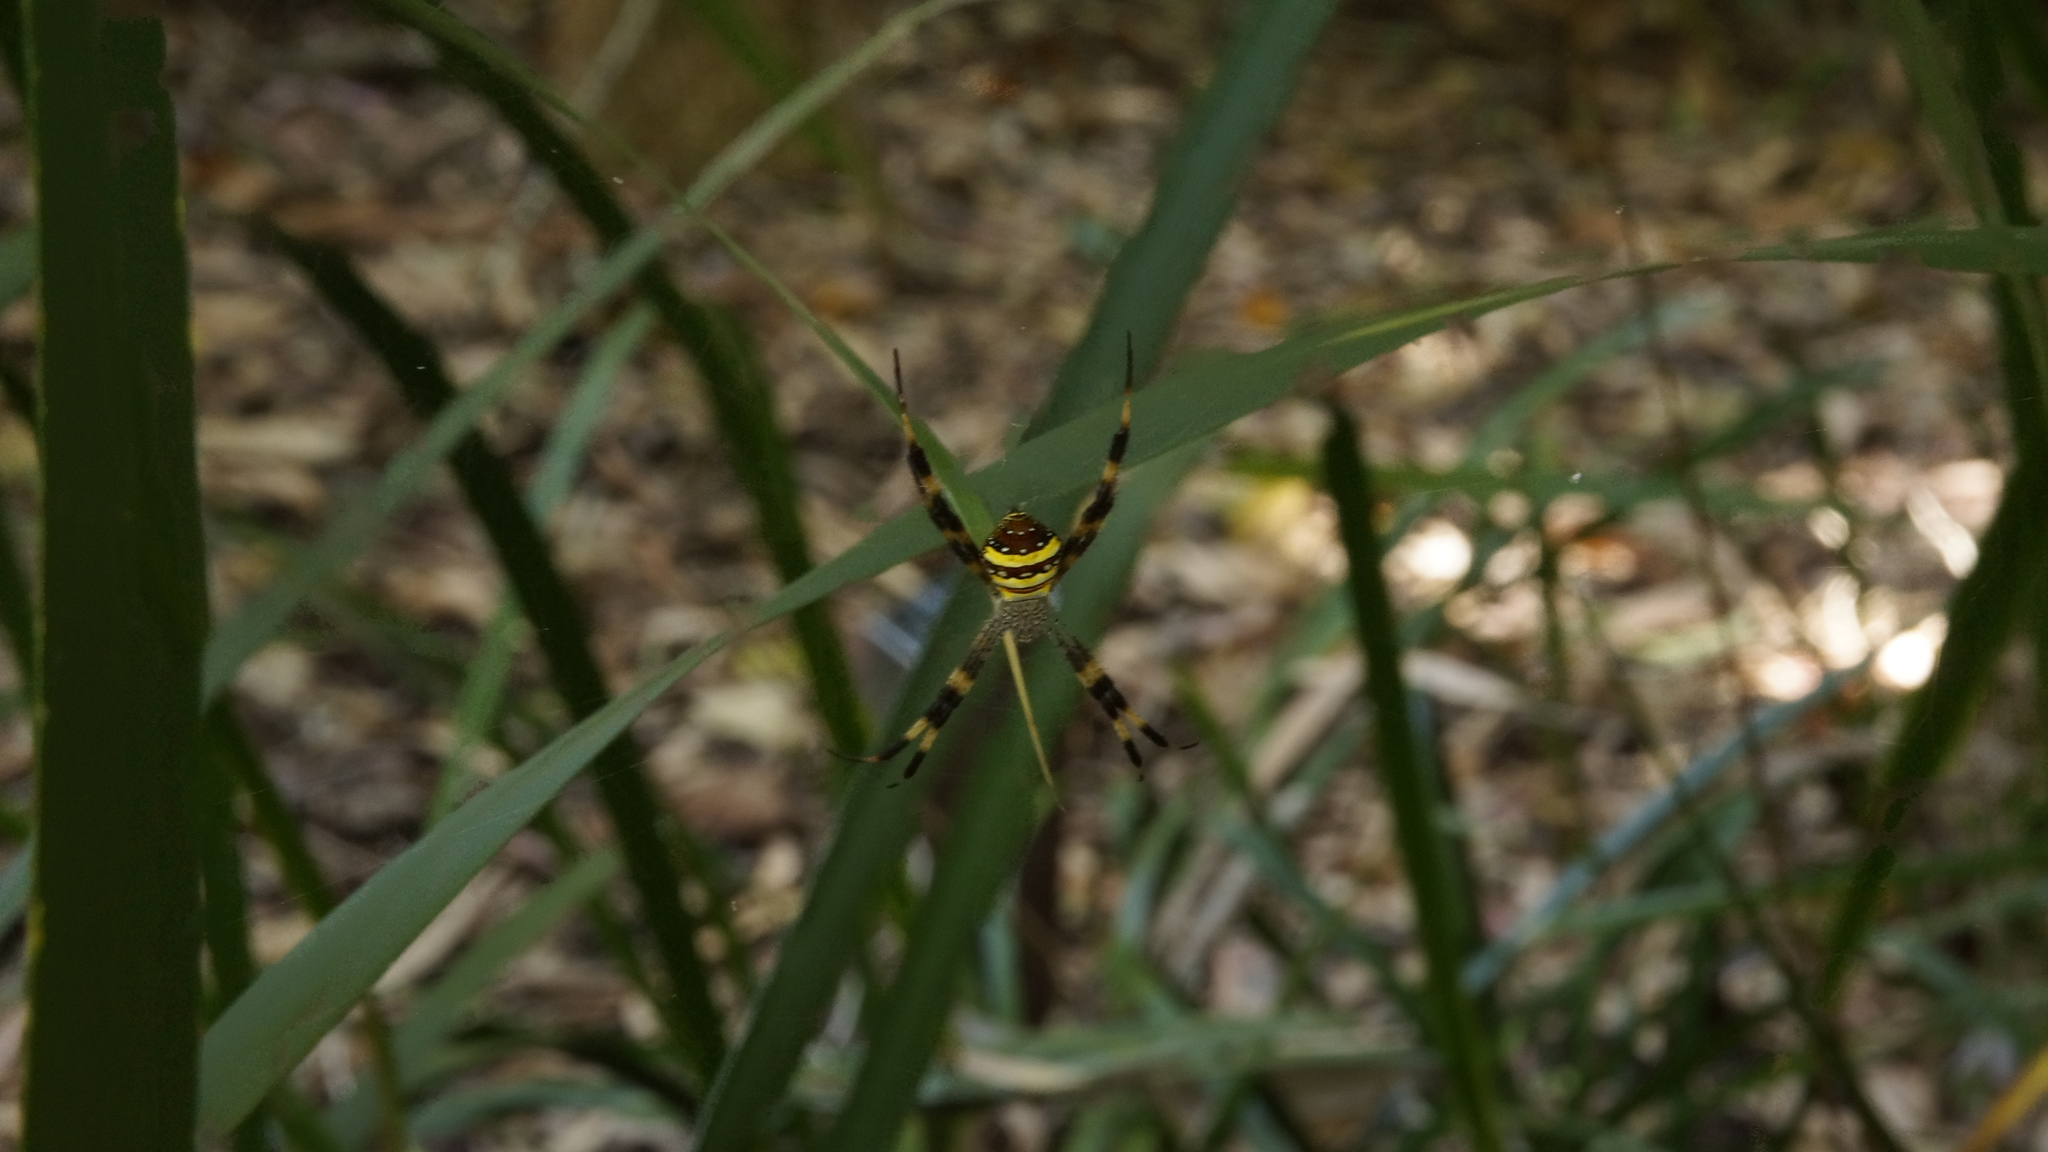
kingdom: Animalia
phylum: Arthropoda
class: Arachnida
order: Araneae
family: Araneidae
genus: Argiope
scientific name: Argiope aetherea
